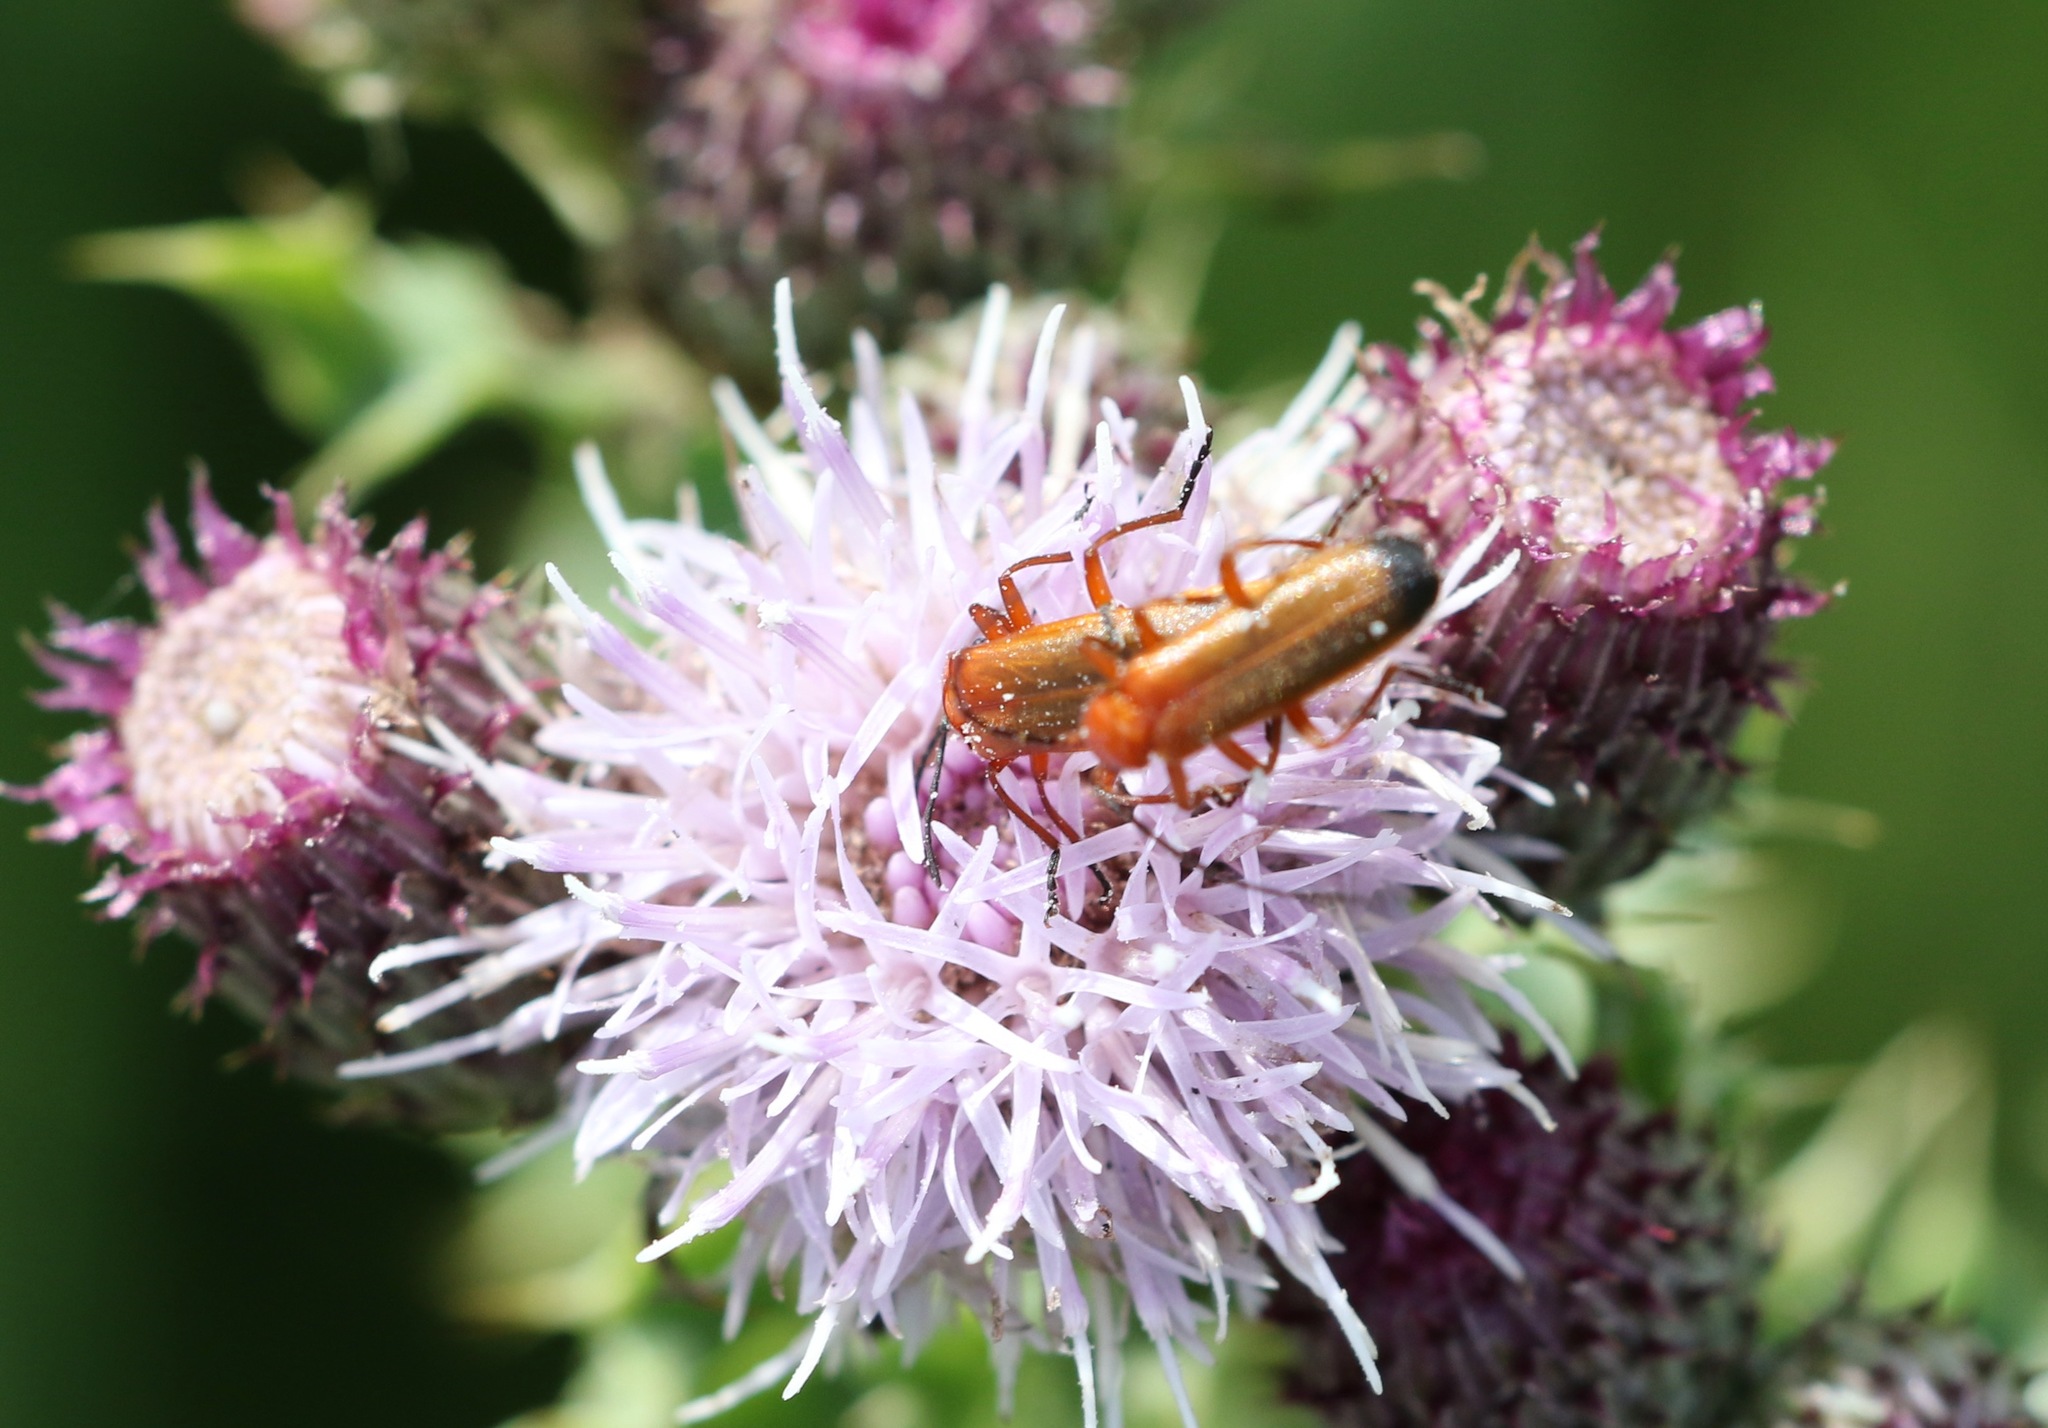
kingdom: Animalia
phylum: Arthropoda
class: Insecta
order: Coleoptera
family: Cantharidae
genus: Rhagonycha
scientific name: Rhagonycha fulva
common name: Common red soldier beetle
